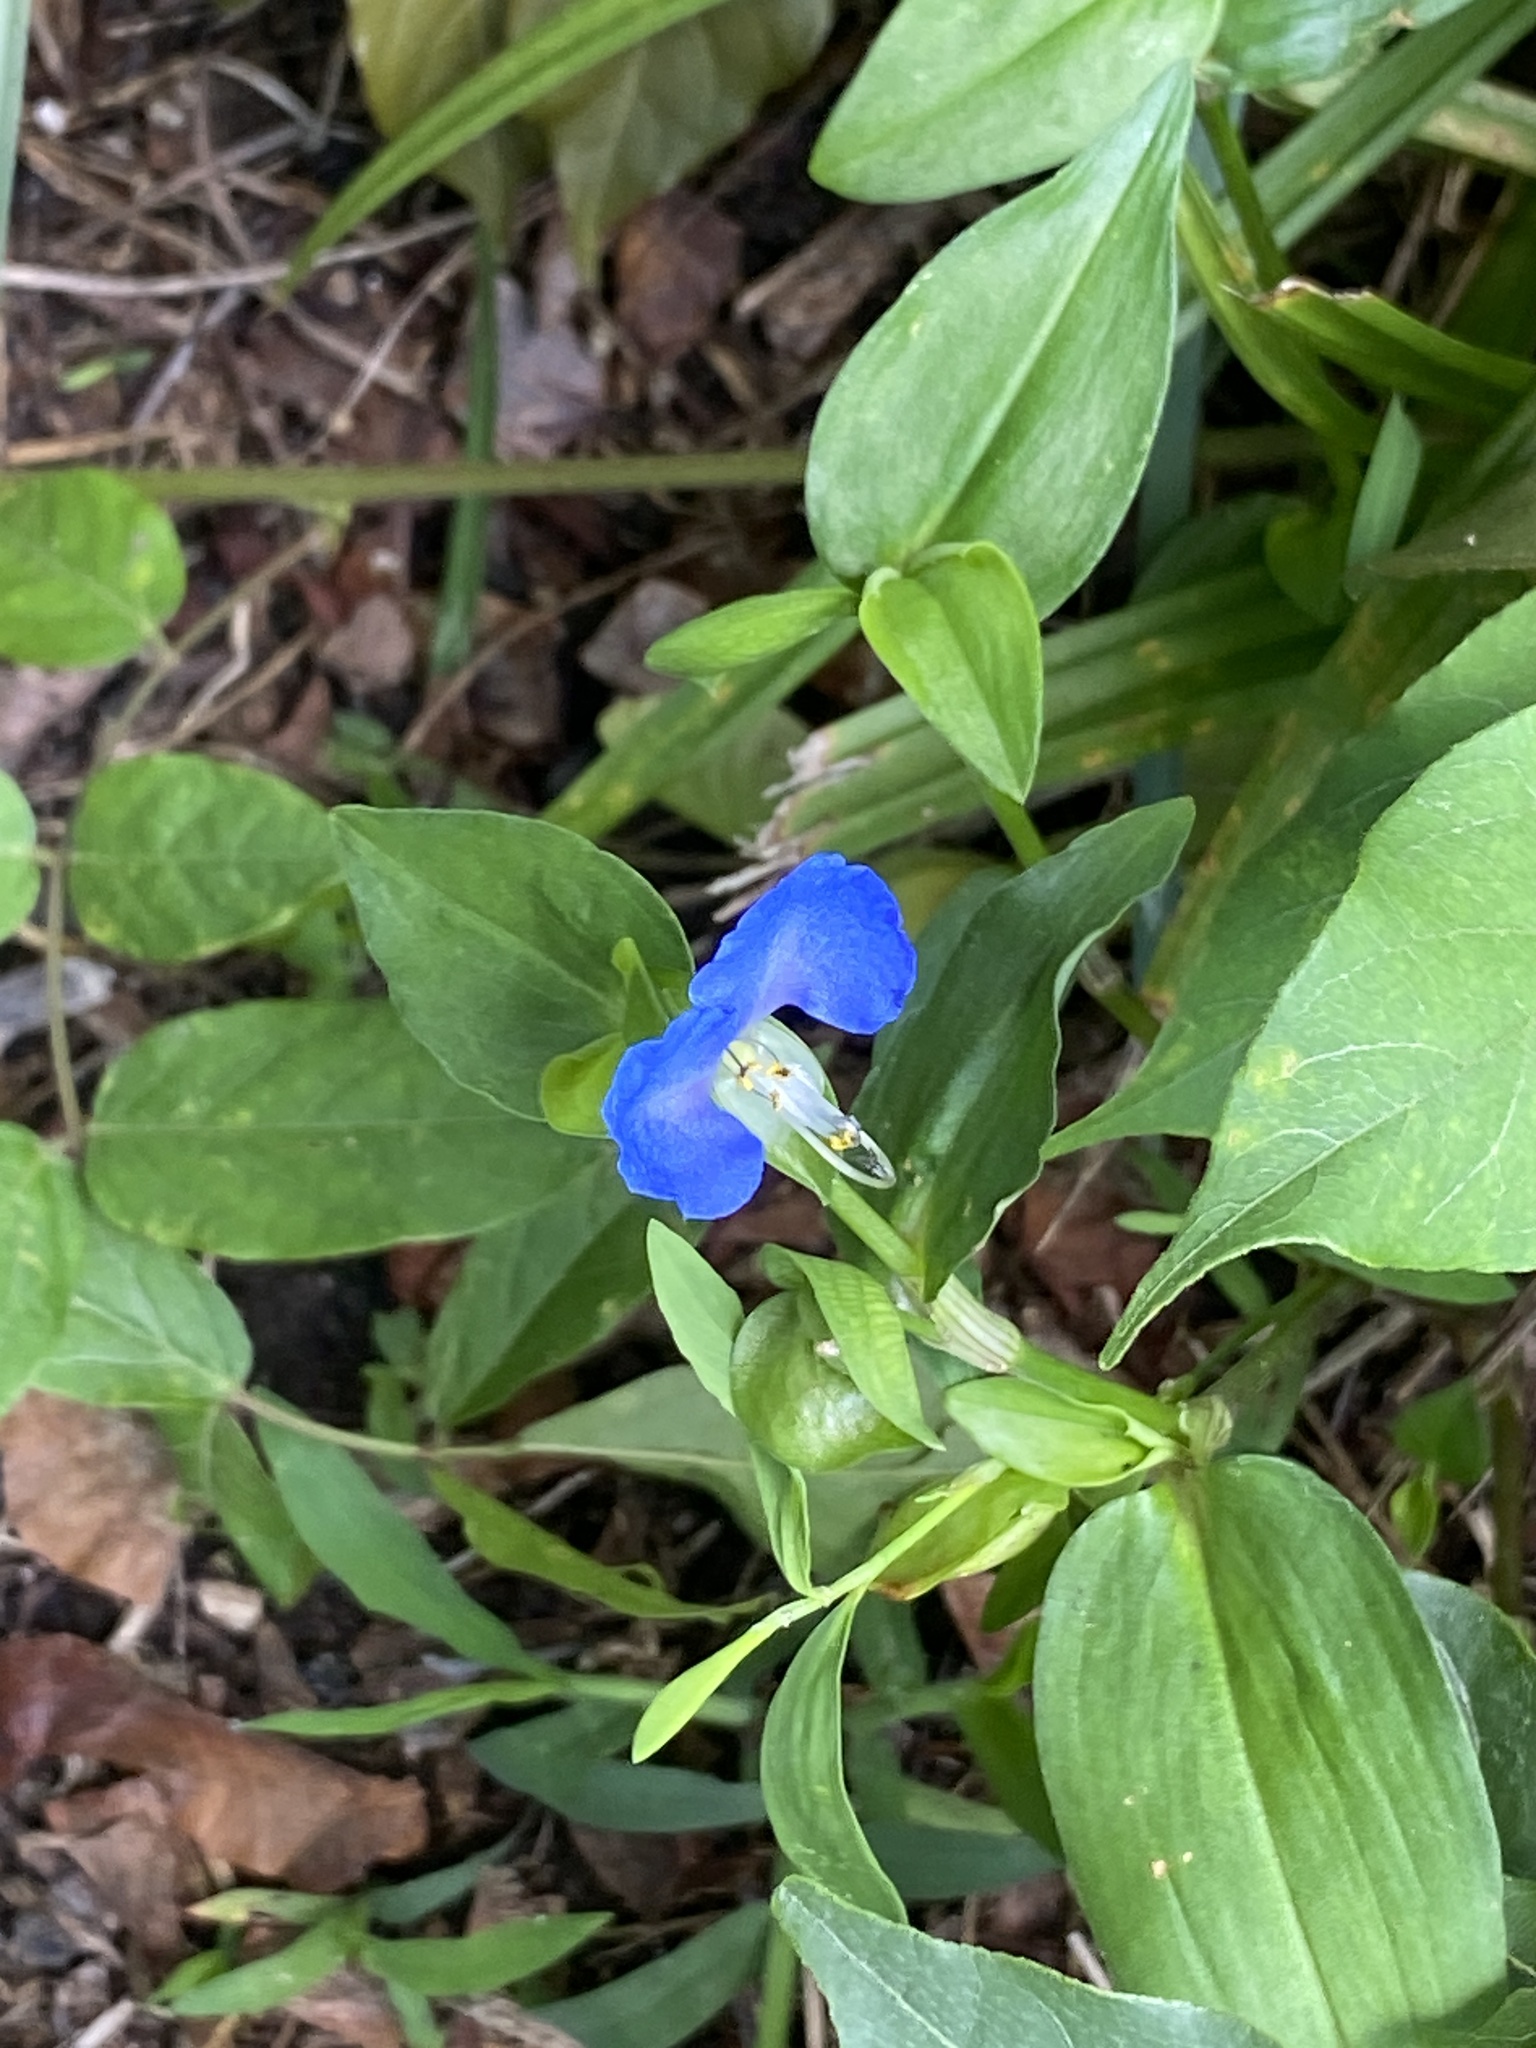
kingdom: Plantae
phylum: Tracheophyta
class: Liliopsida
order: Commelinales
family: Commelinaceae
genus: Commelina
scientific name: Commelina communis
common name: Asiatic dayflower
